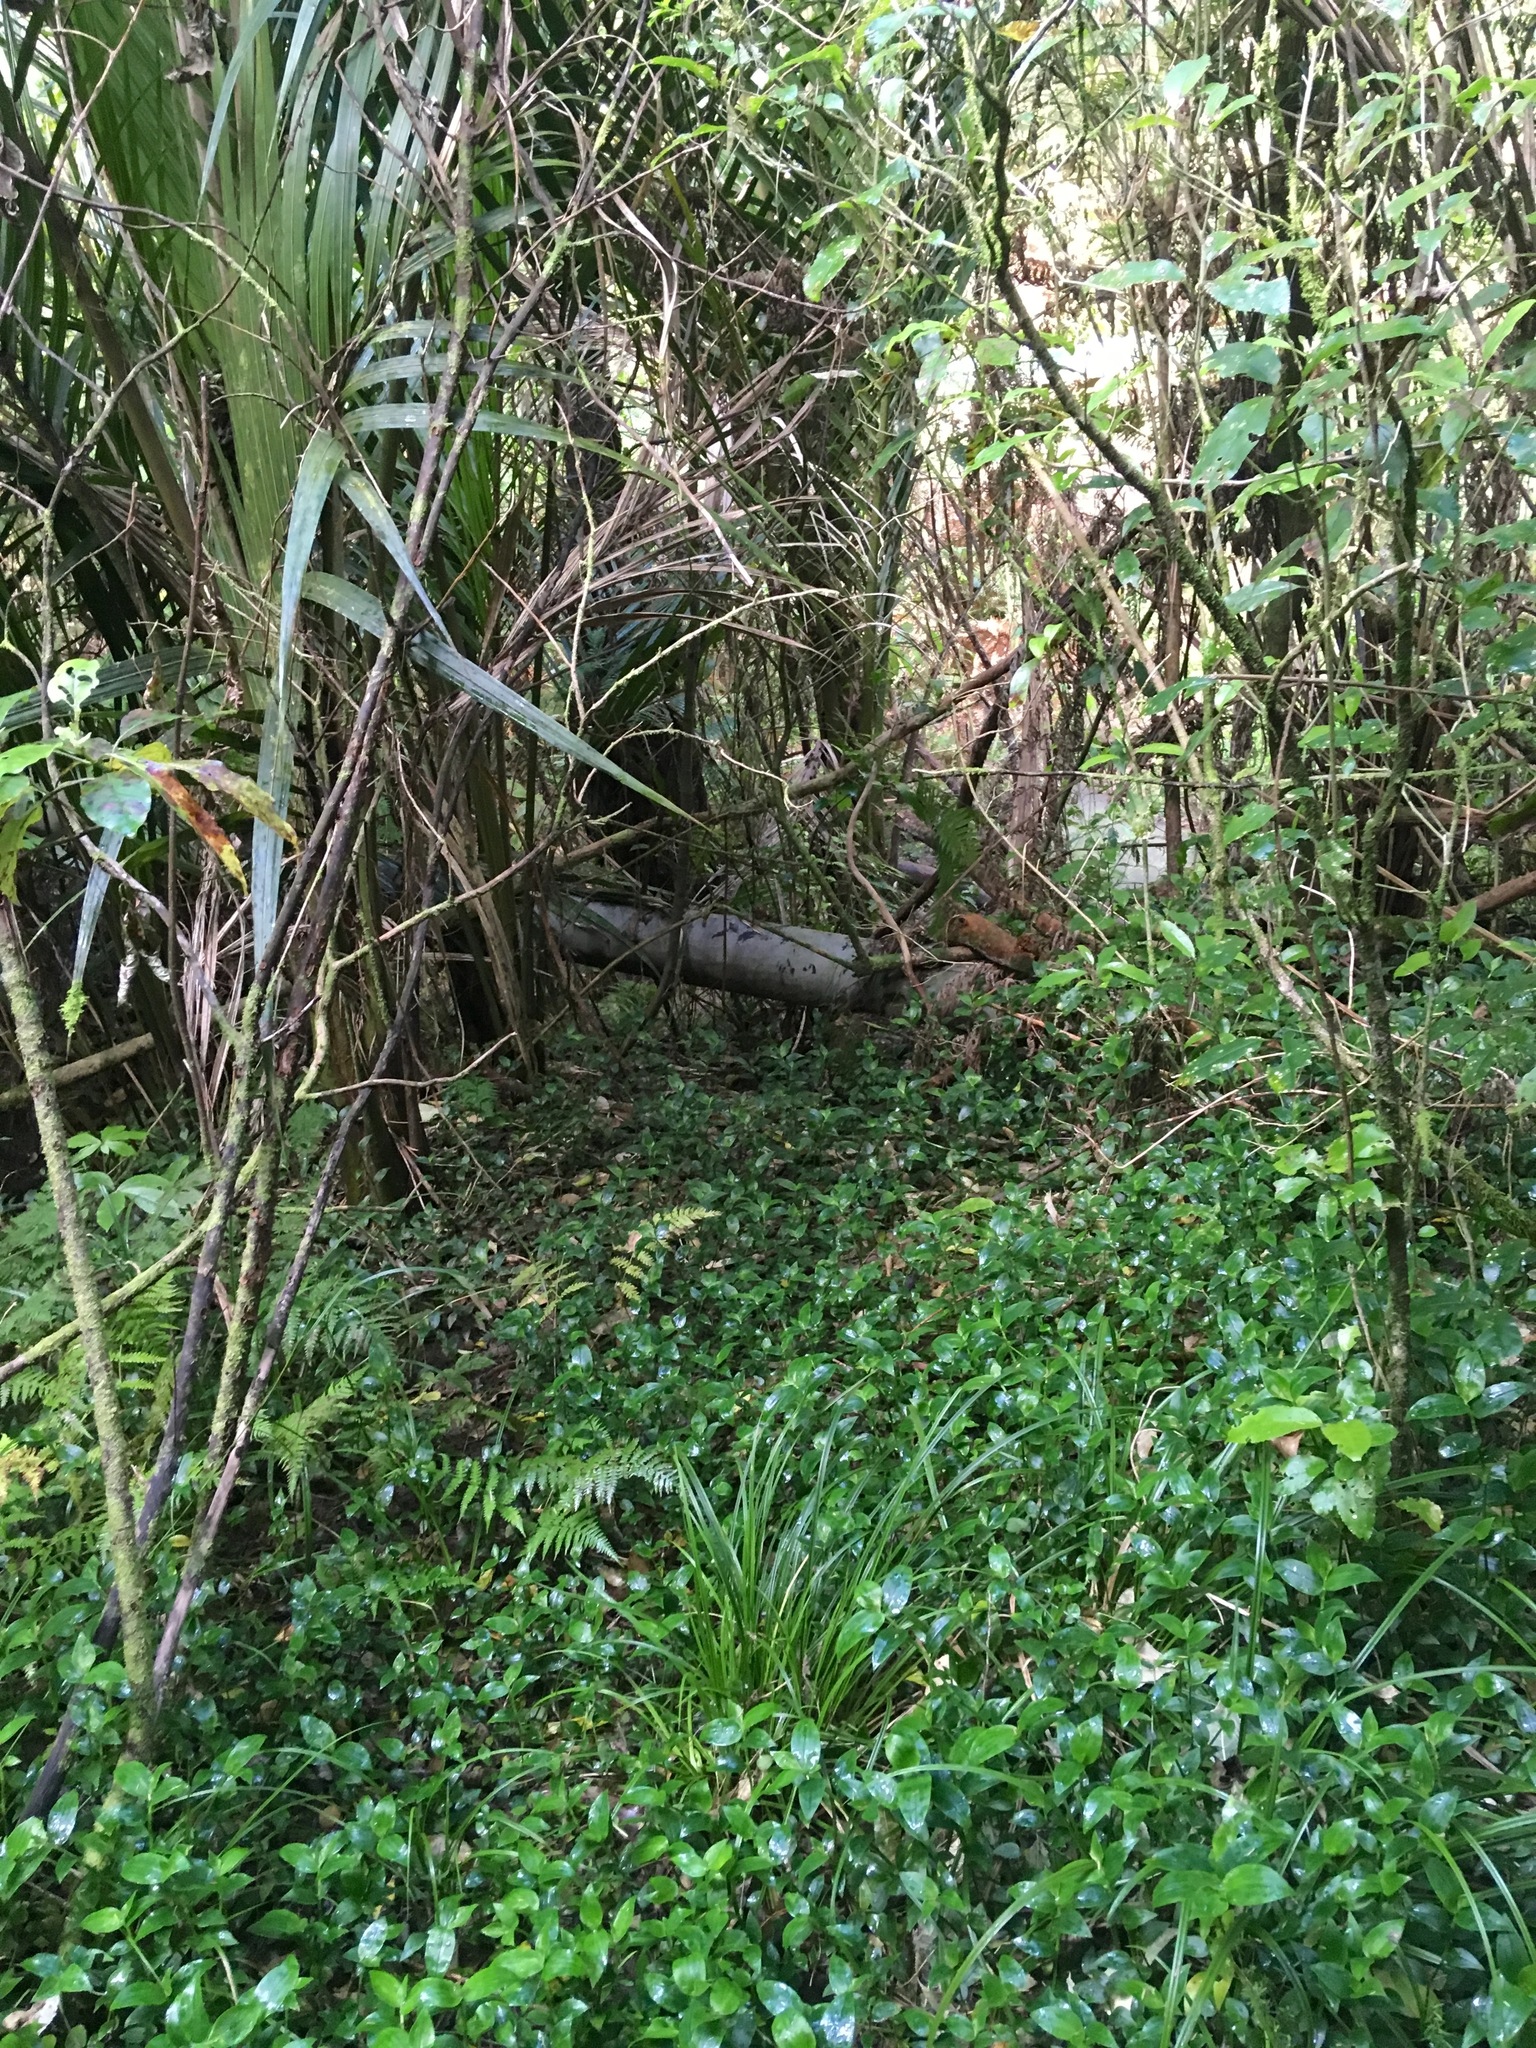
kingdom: Plantae
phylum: Tracheophyta
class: Liliopsida
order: Commelinales
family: Commelinaceae
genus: Tradescantia
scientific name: Tradescantia fluminensis
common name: Wandering-jew
